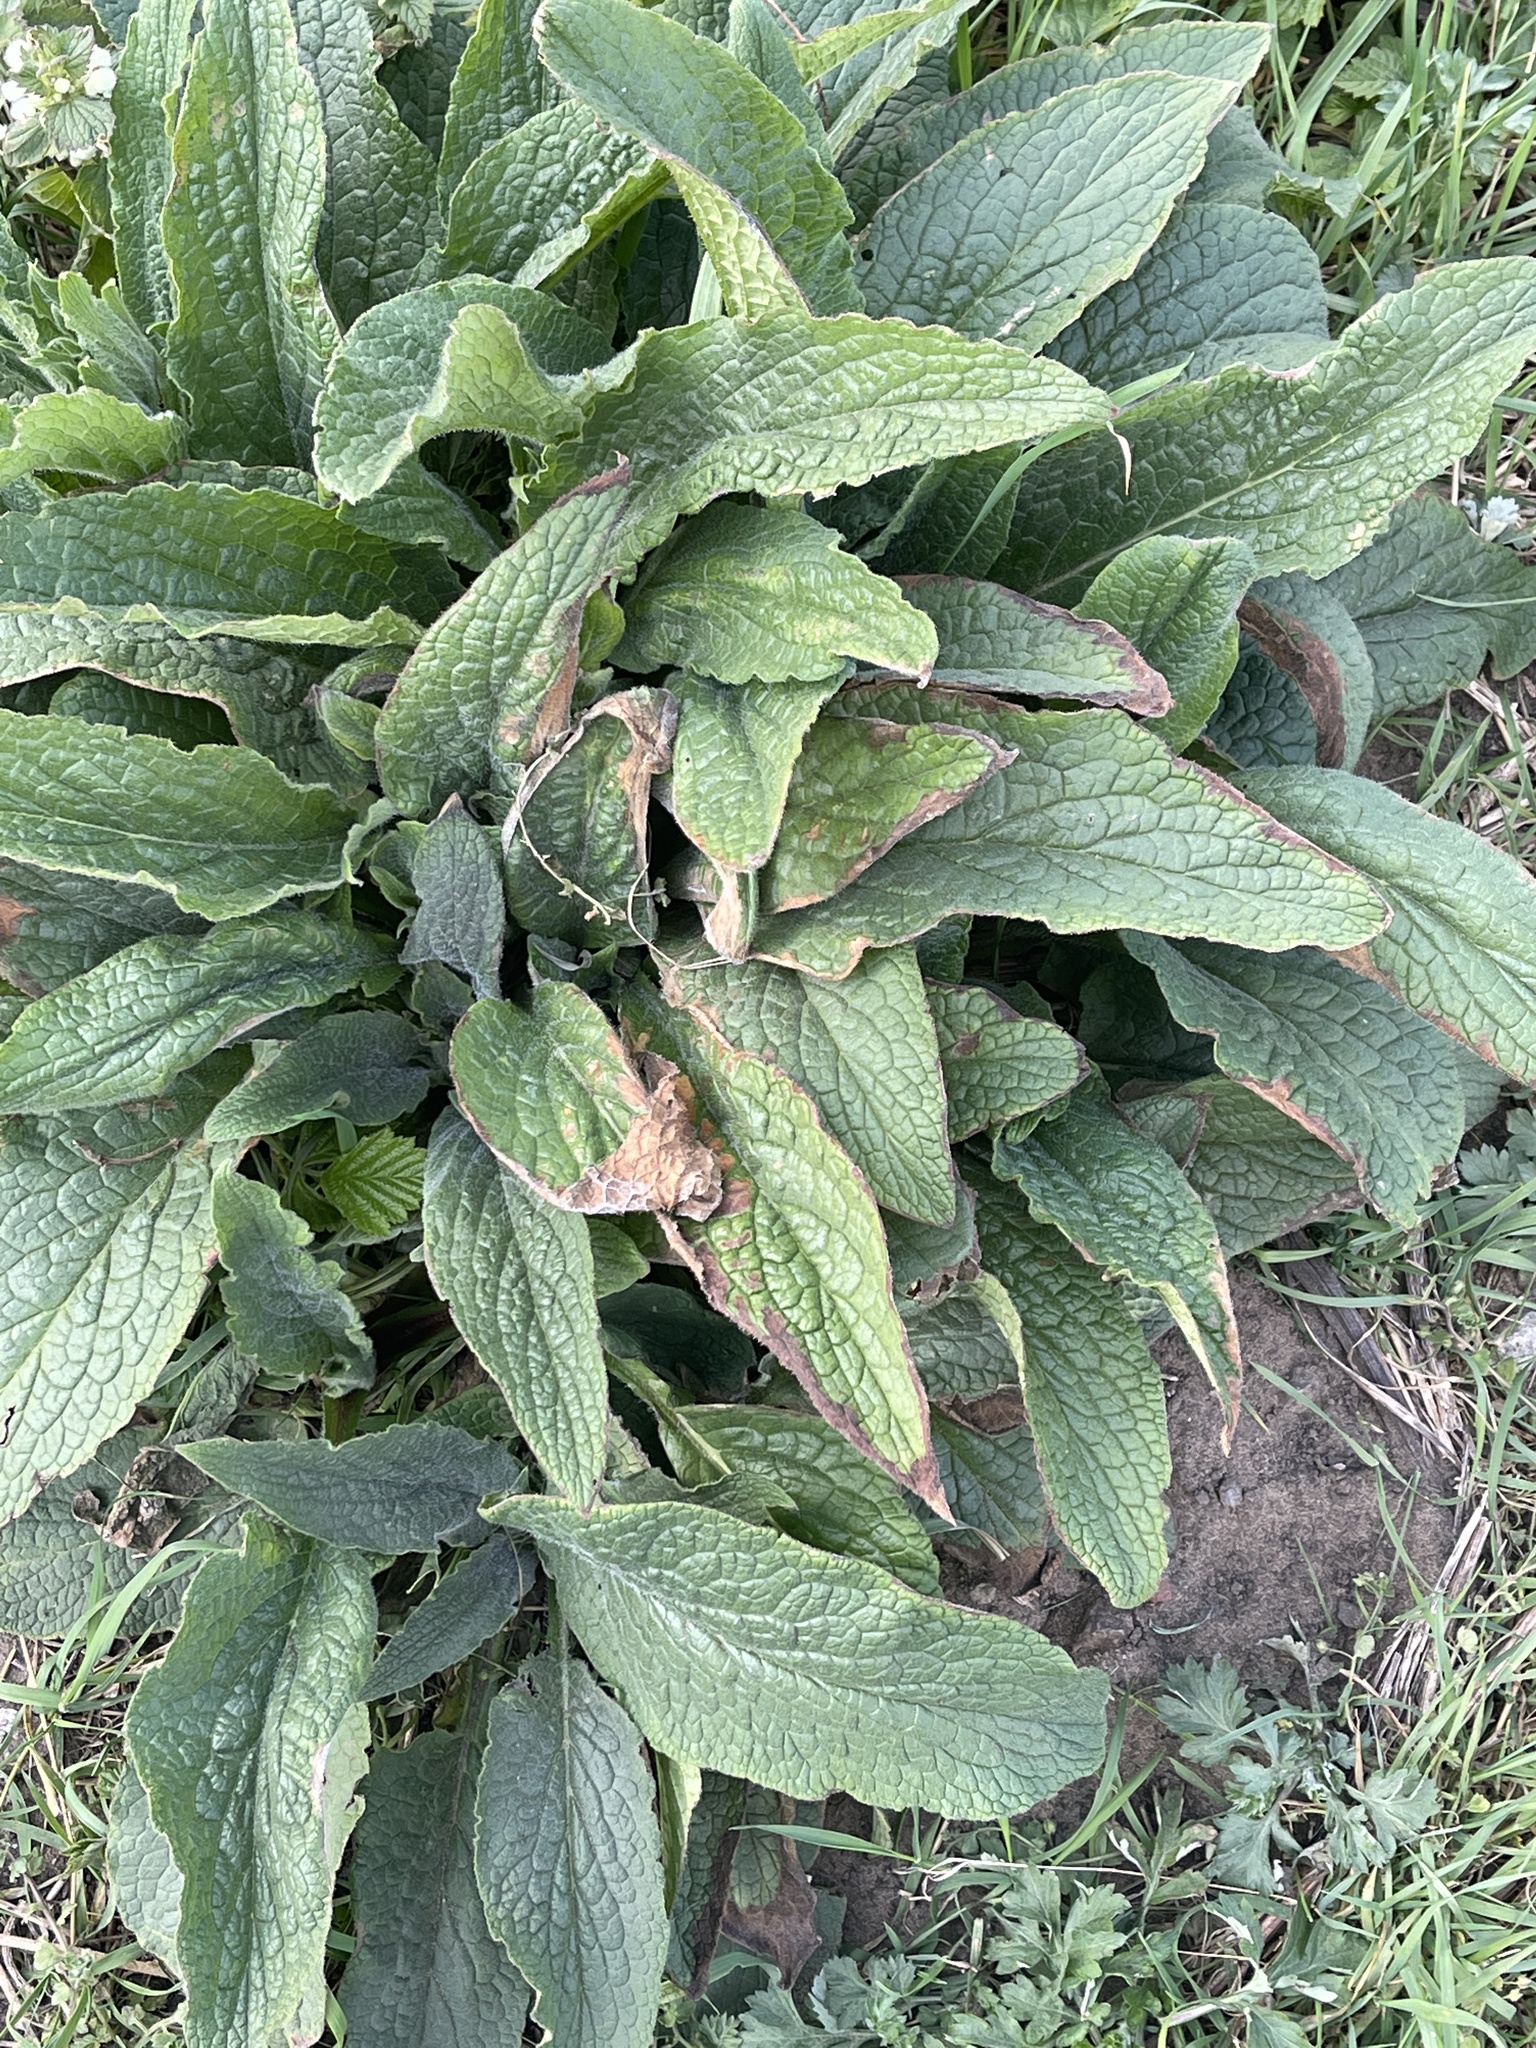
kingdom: Plantae
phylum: Tracheophyta
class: Magnoliopsida
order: Boraginales
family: Boraginaceae
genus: Symphytum
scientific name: Symphytum uplandicum
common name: Russian comfrey
